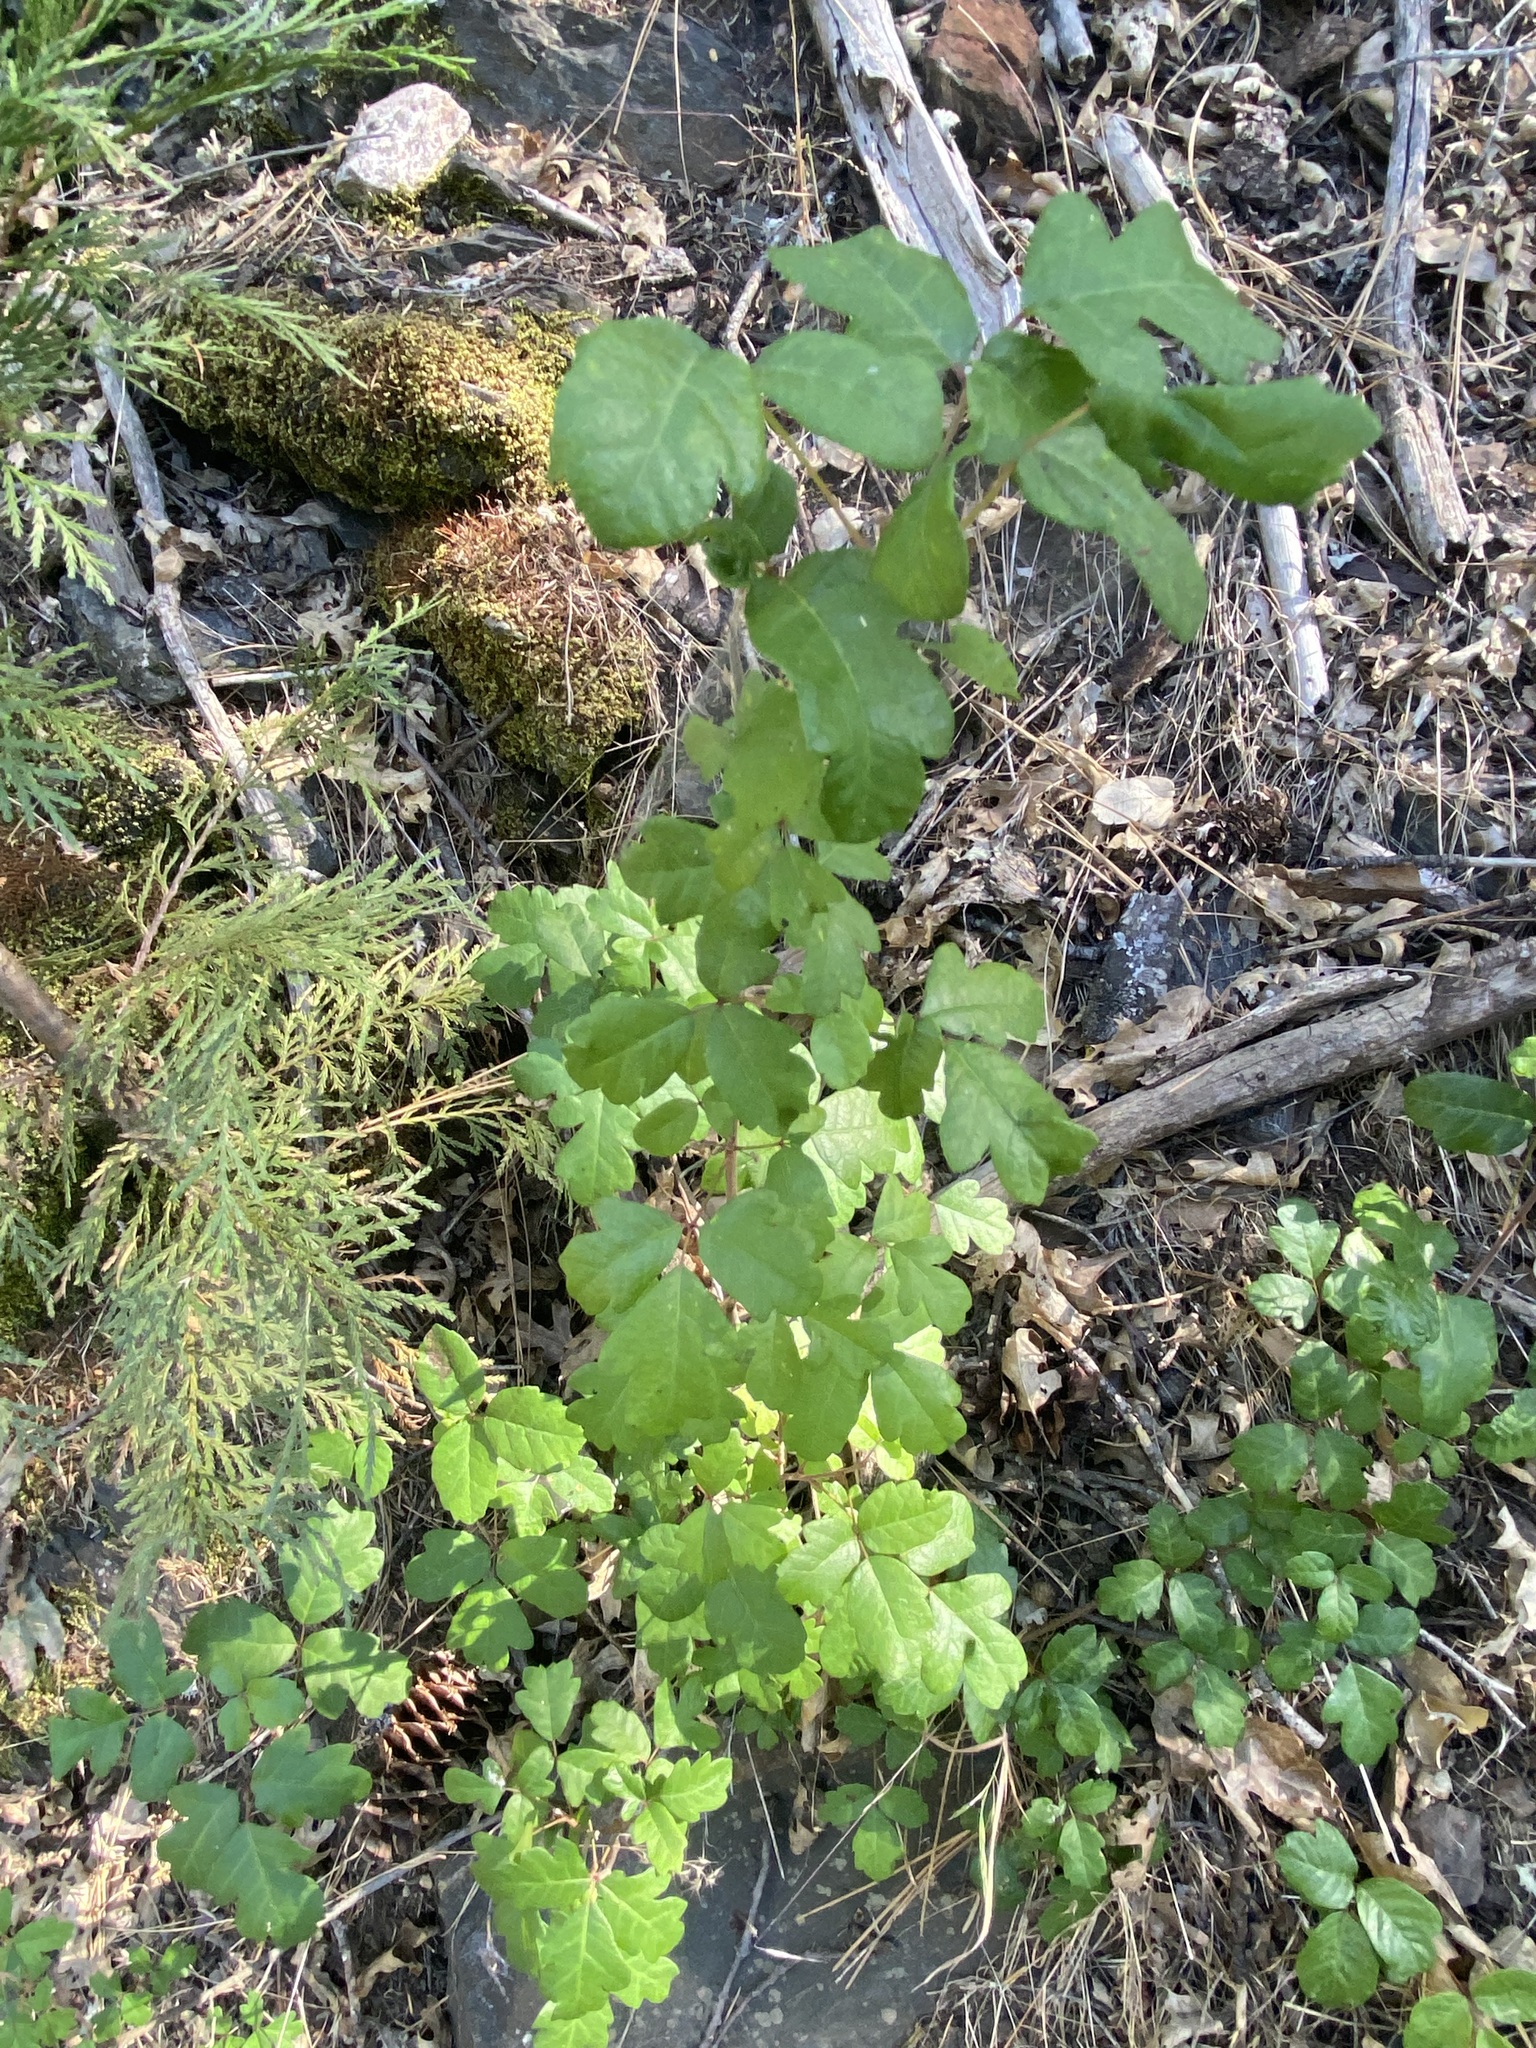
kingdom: Plantae
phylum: Tracheophyta
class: Magnoliopsida
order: Sapindales
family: Anacardiaceae
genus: Toxicodendron
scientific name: Toxicodendron diversilobum
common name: Pacific poison-oak
